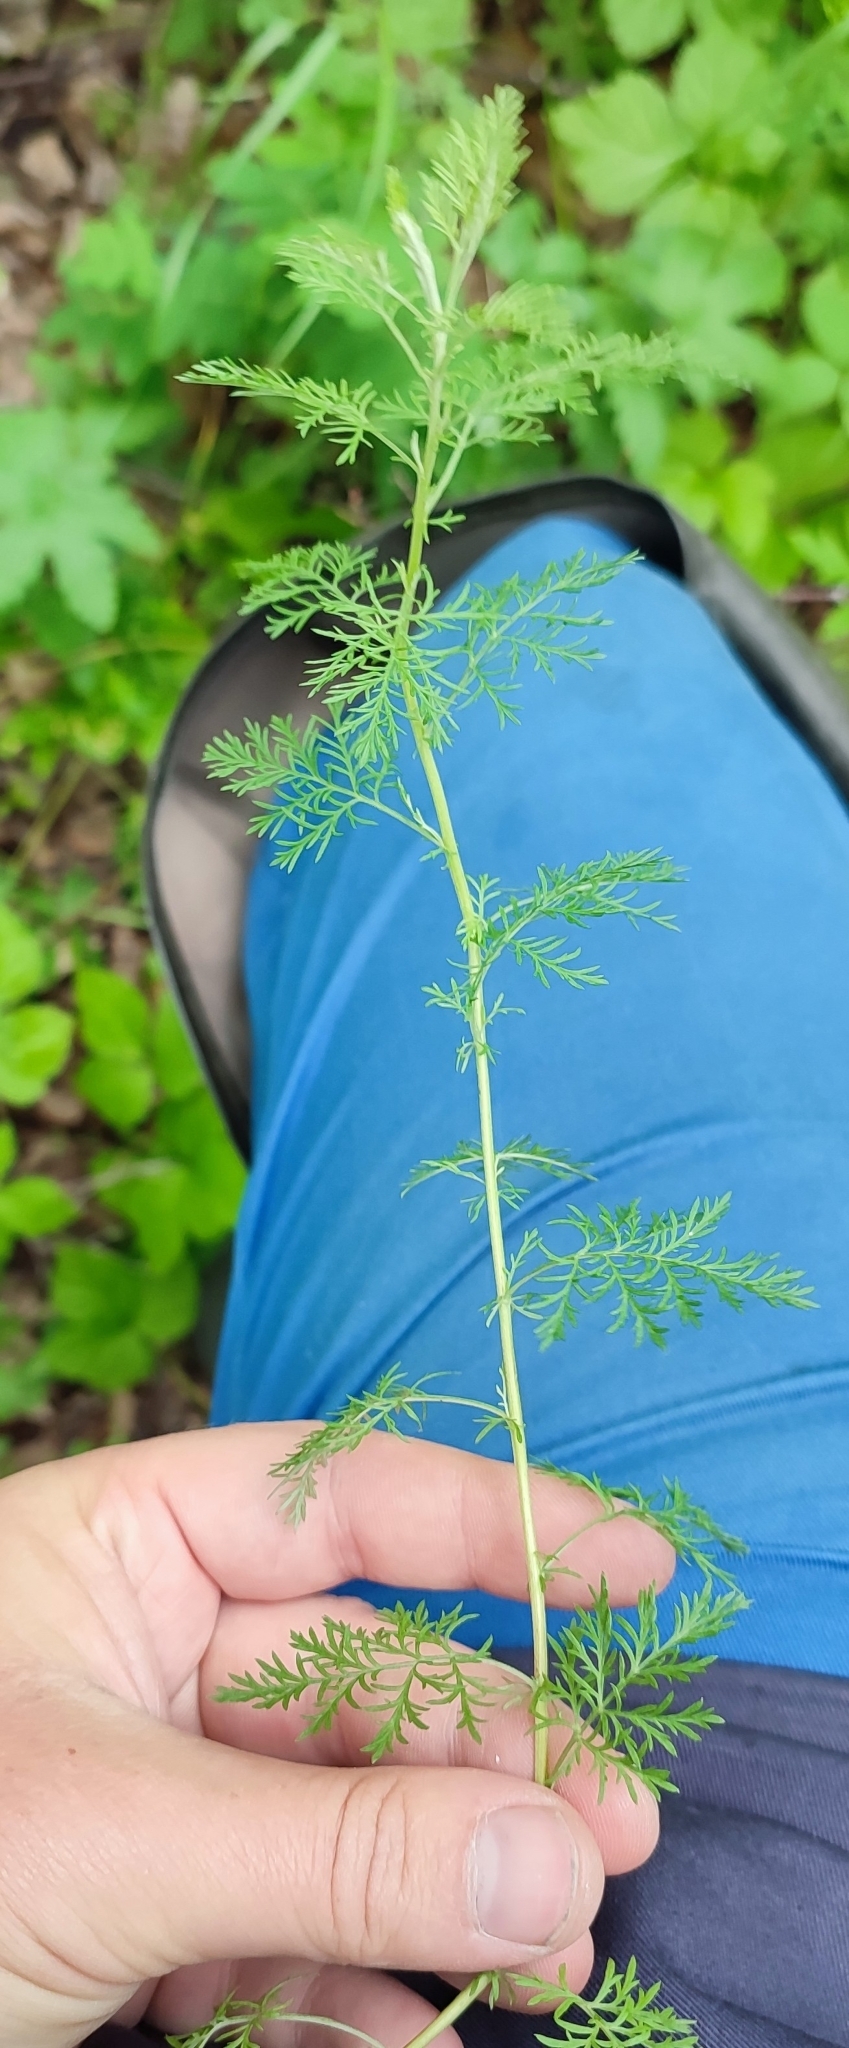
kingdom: Plantae
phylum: Tracheophyta
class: Magnoliopsida
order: Asterales
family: Asteraceae
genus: Artemisia
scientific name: Artemisia macrantha
